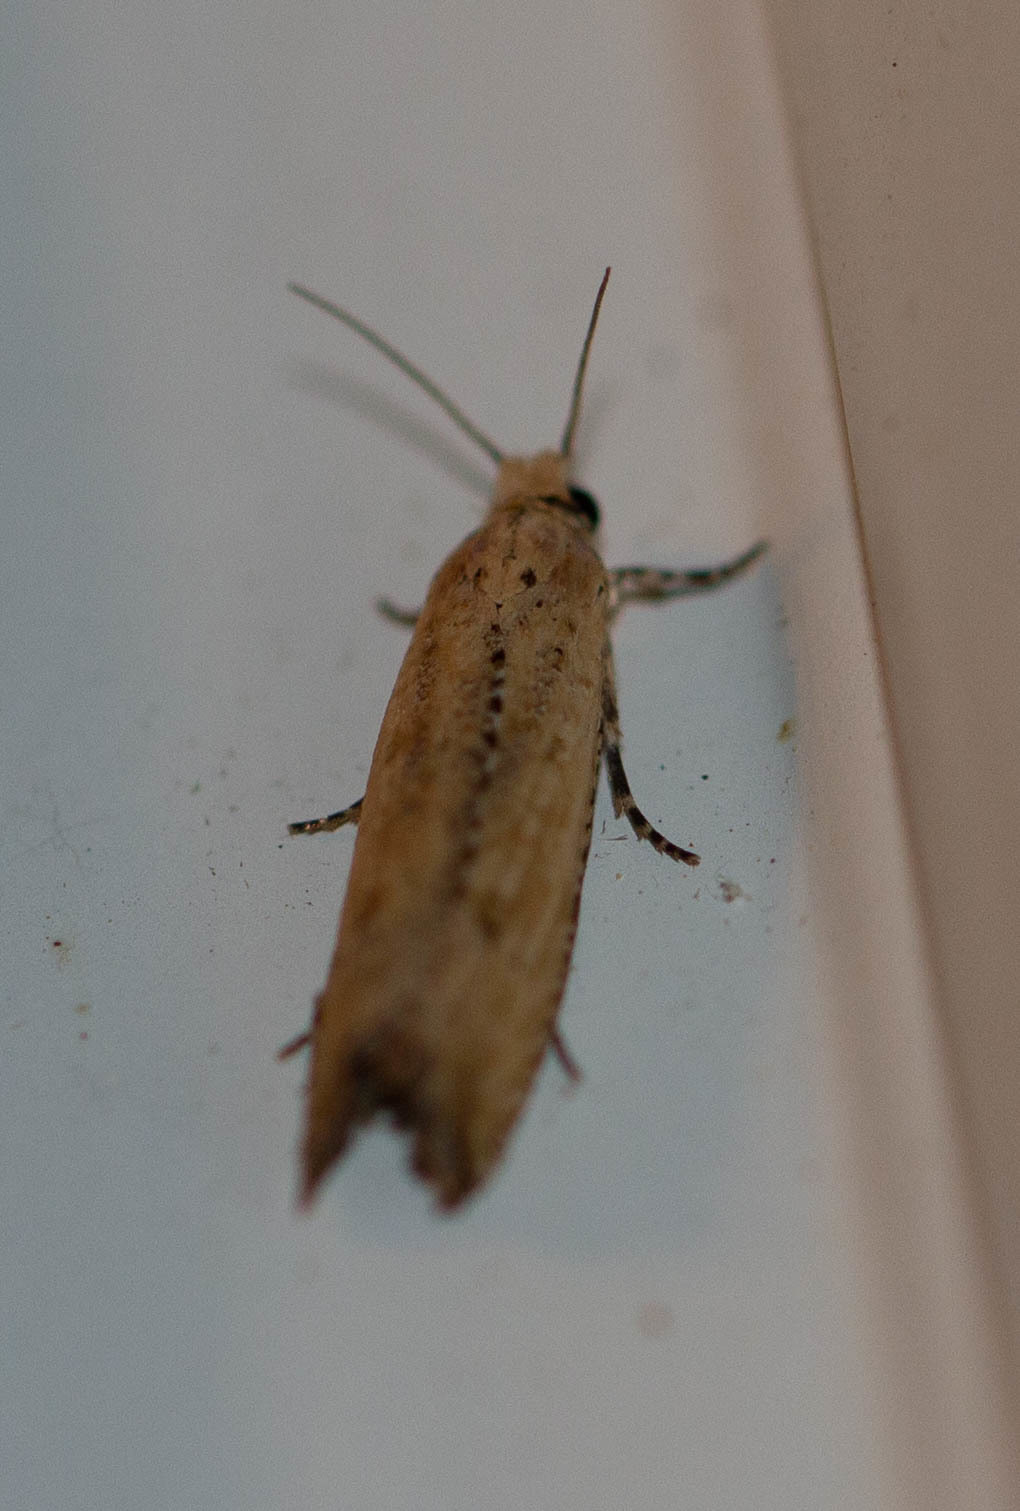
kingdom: Animalia
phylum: Arthropoda
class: Insecta
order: Lepidoptera
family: Tortricidae
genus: Bactra
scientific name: Bactra verutana
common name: Javelin moth
